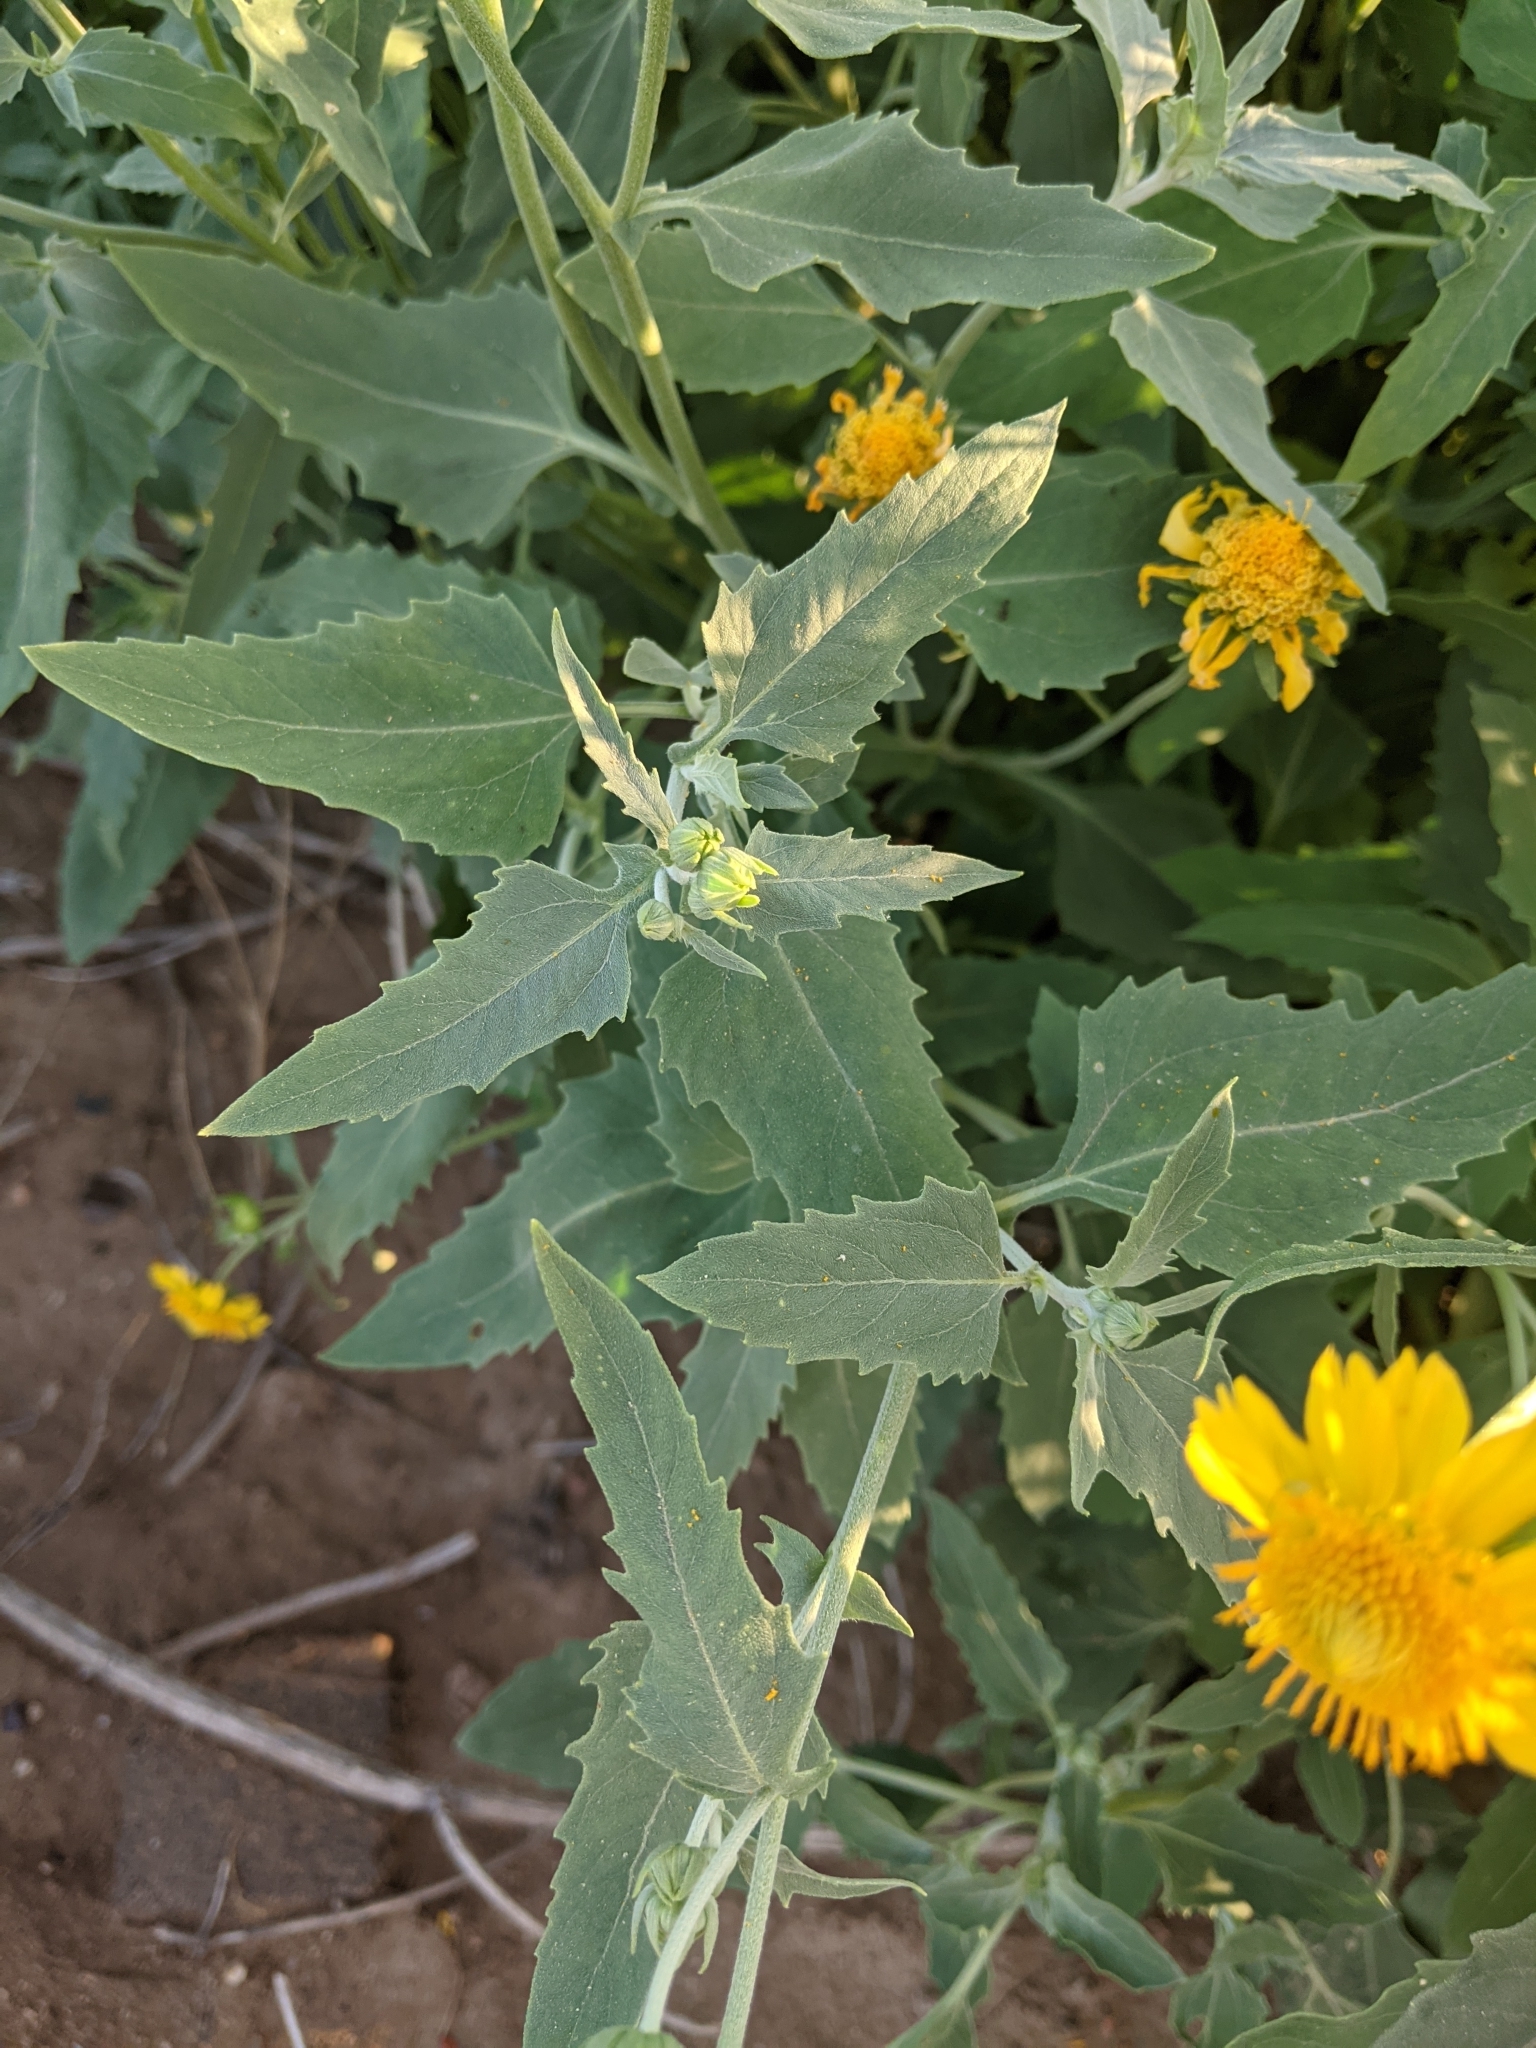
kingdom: Plantae
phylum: Tracheophyta
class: Magnoliopsida
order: Asterales
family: Asteraceae
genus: Verbesina
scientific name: Verbesina encelioides
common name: Golden crownbeard
